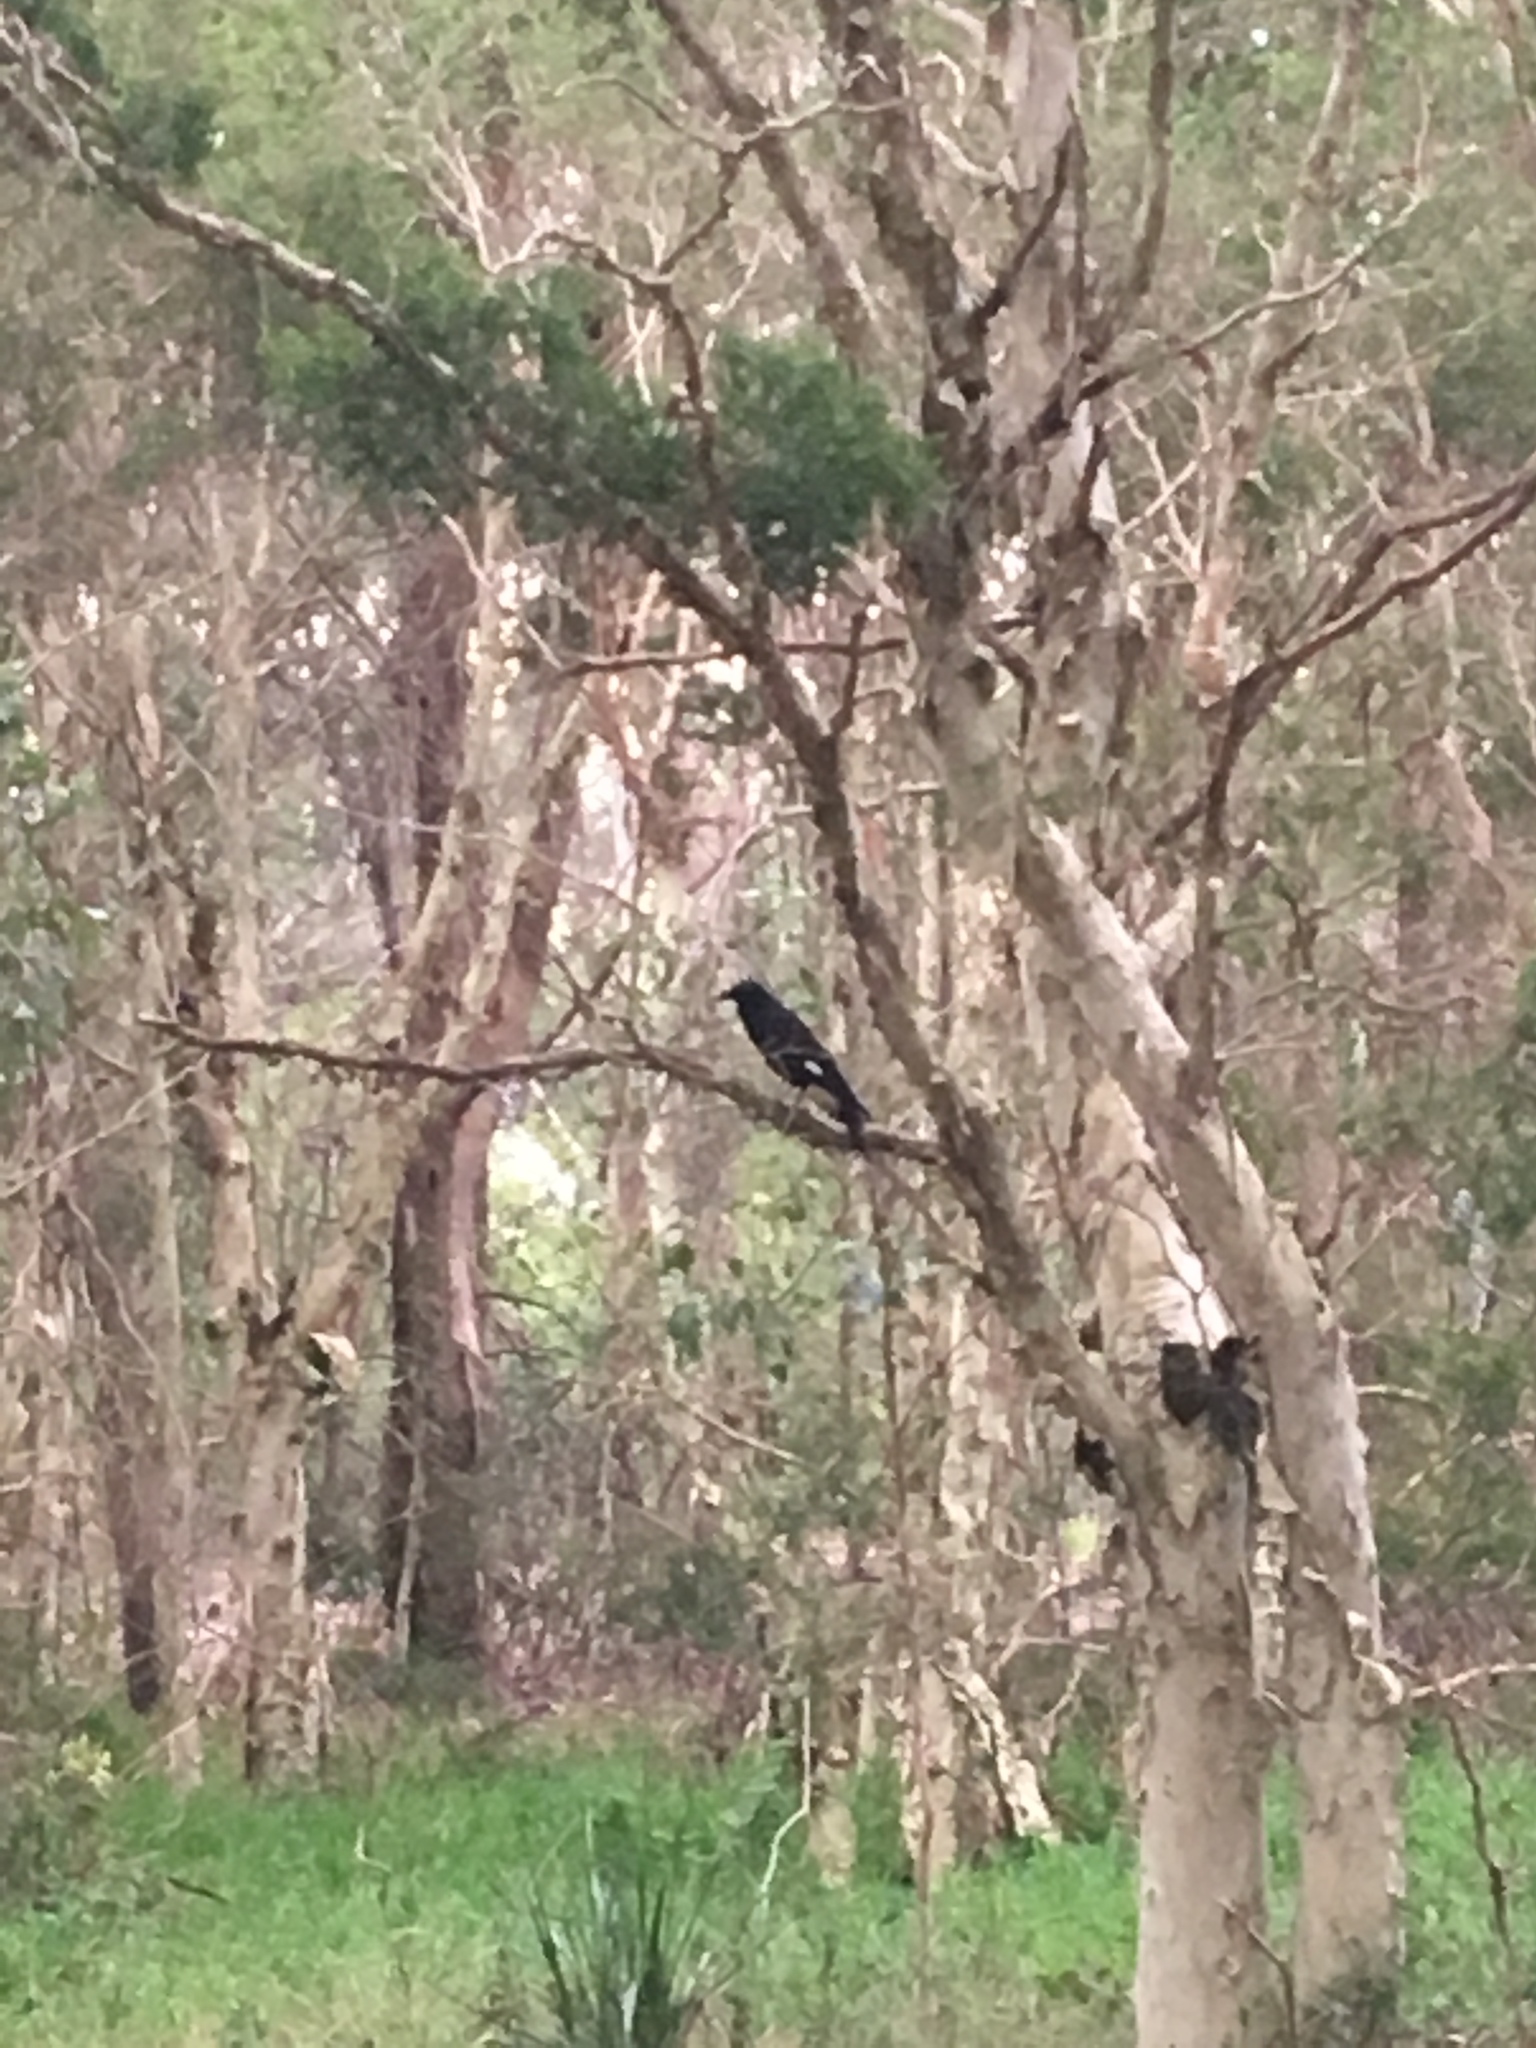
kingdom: Animalia
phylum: Chordata
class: Aves
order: Passeriformes
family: Cracticidae
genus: Strepera
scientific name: Strepera graculina
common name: Pied currawong
